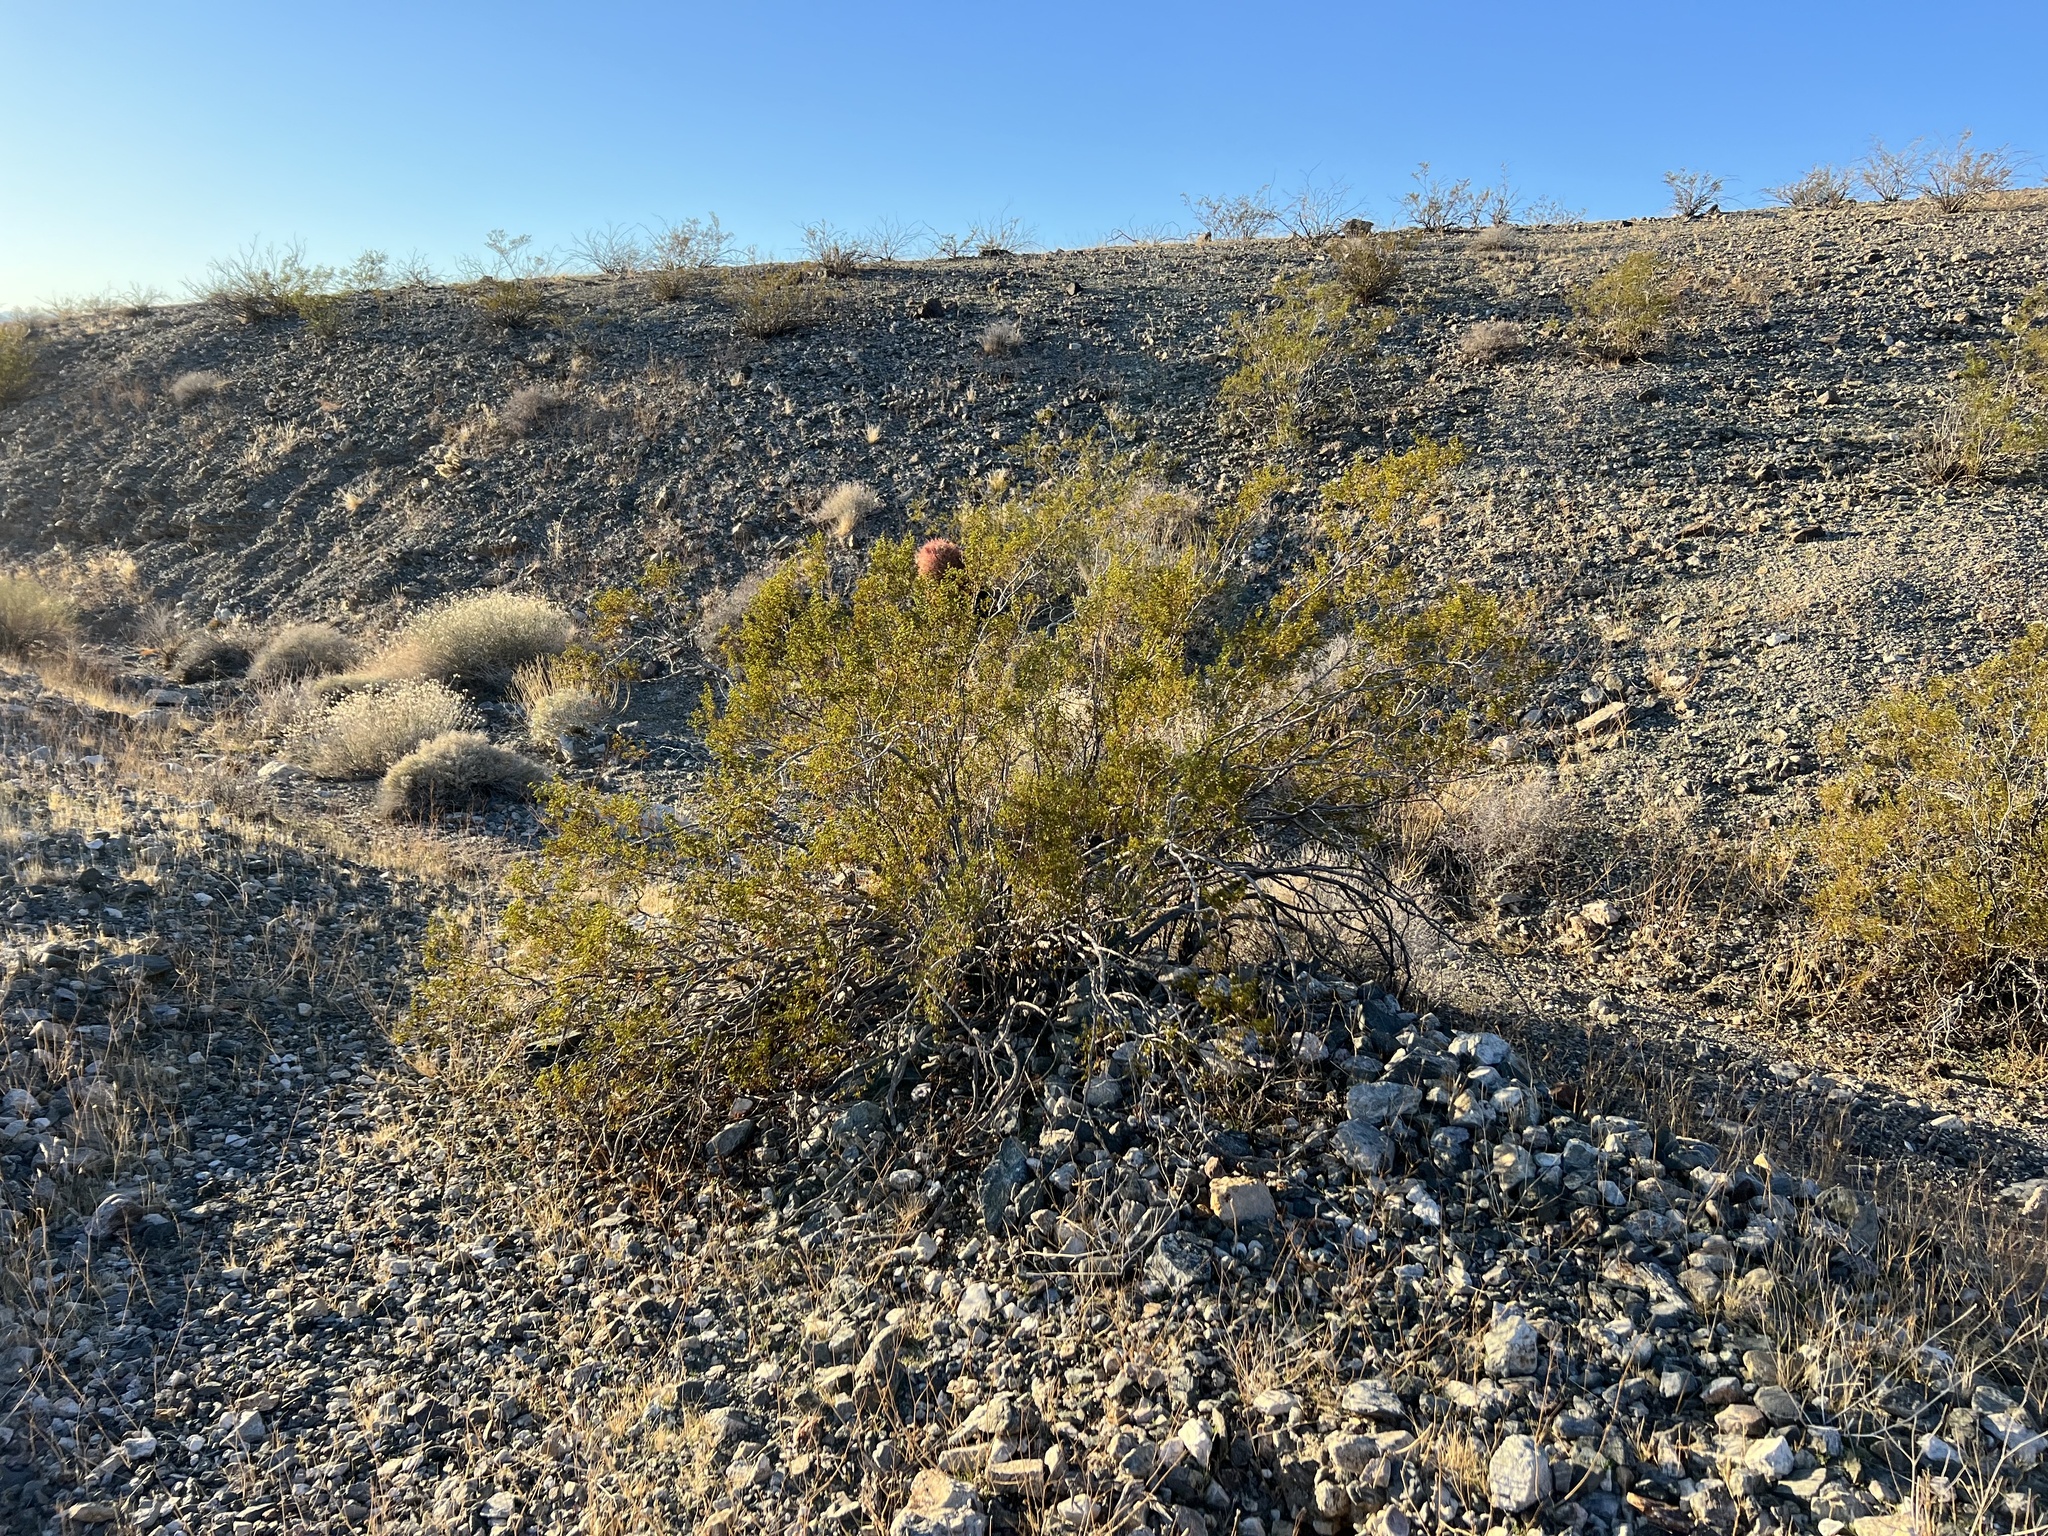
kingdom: Plantae
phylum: Tracheophyta
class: Magnoliopsida
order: Zygophyllales
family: Zygophyllaceae
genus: Larrea
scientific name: Larrea tridentata
